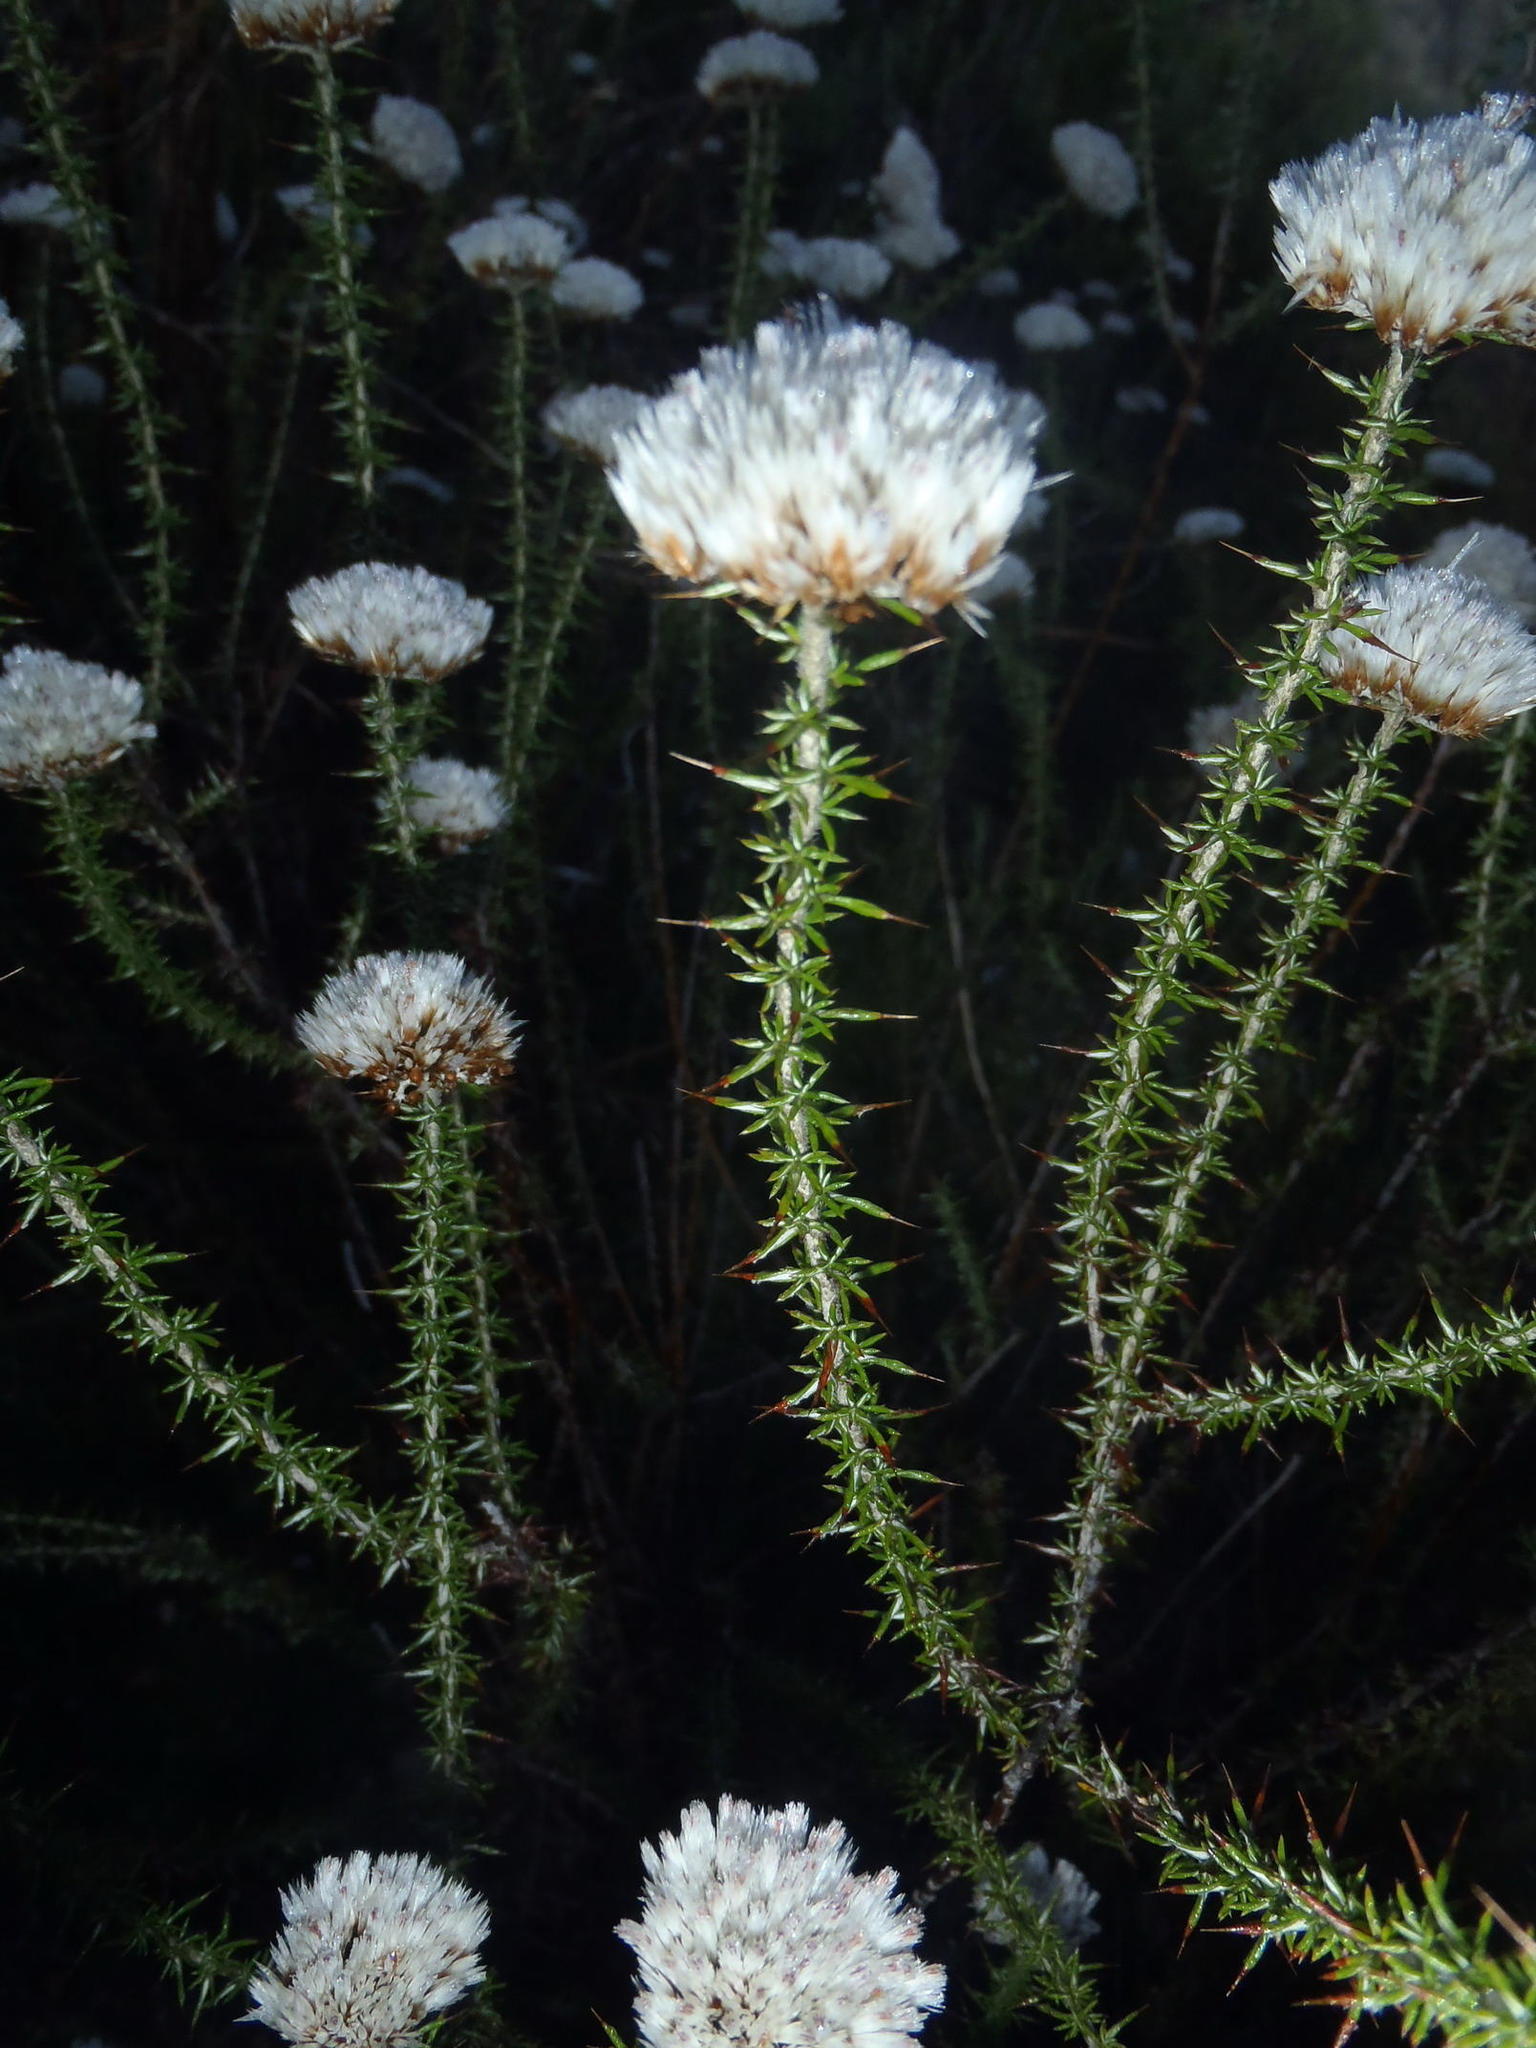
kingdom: Plantae
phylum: Tracheophyta
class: Magnoliopsida
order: Asterales
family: Asteraceae
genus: Metalasia
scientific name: Metalasia acuta
